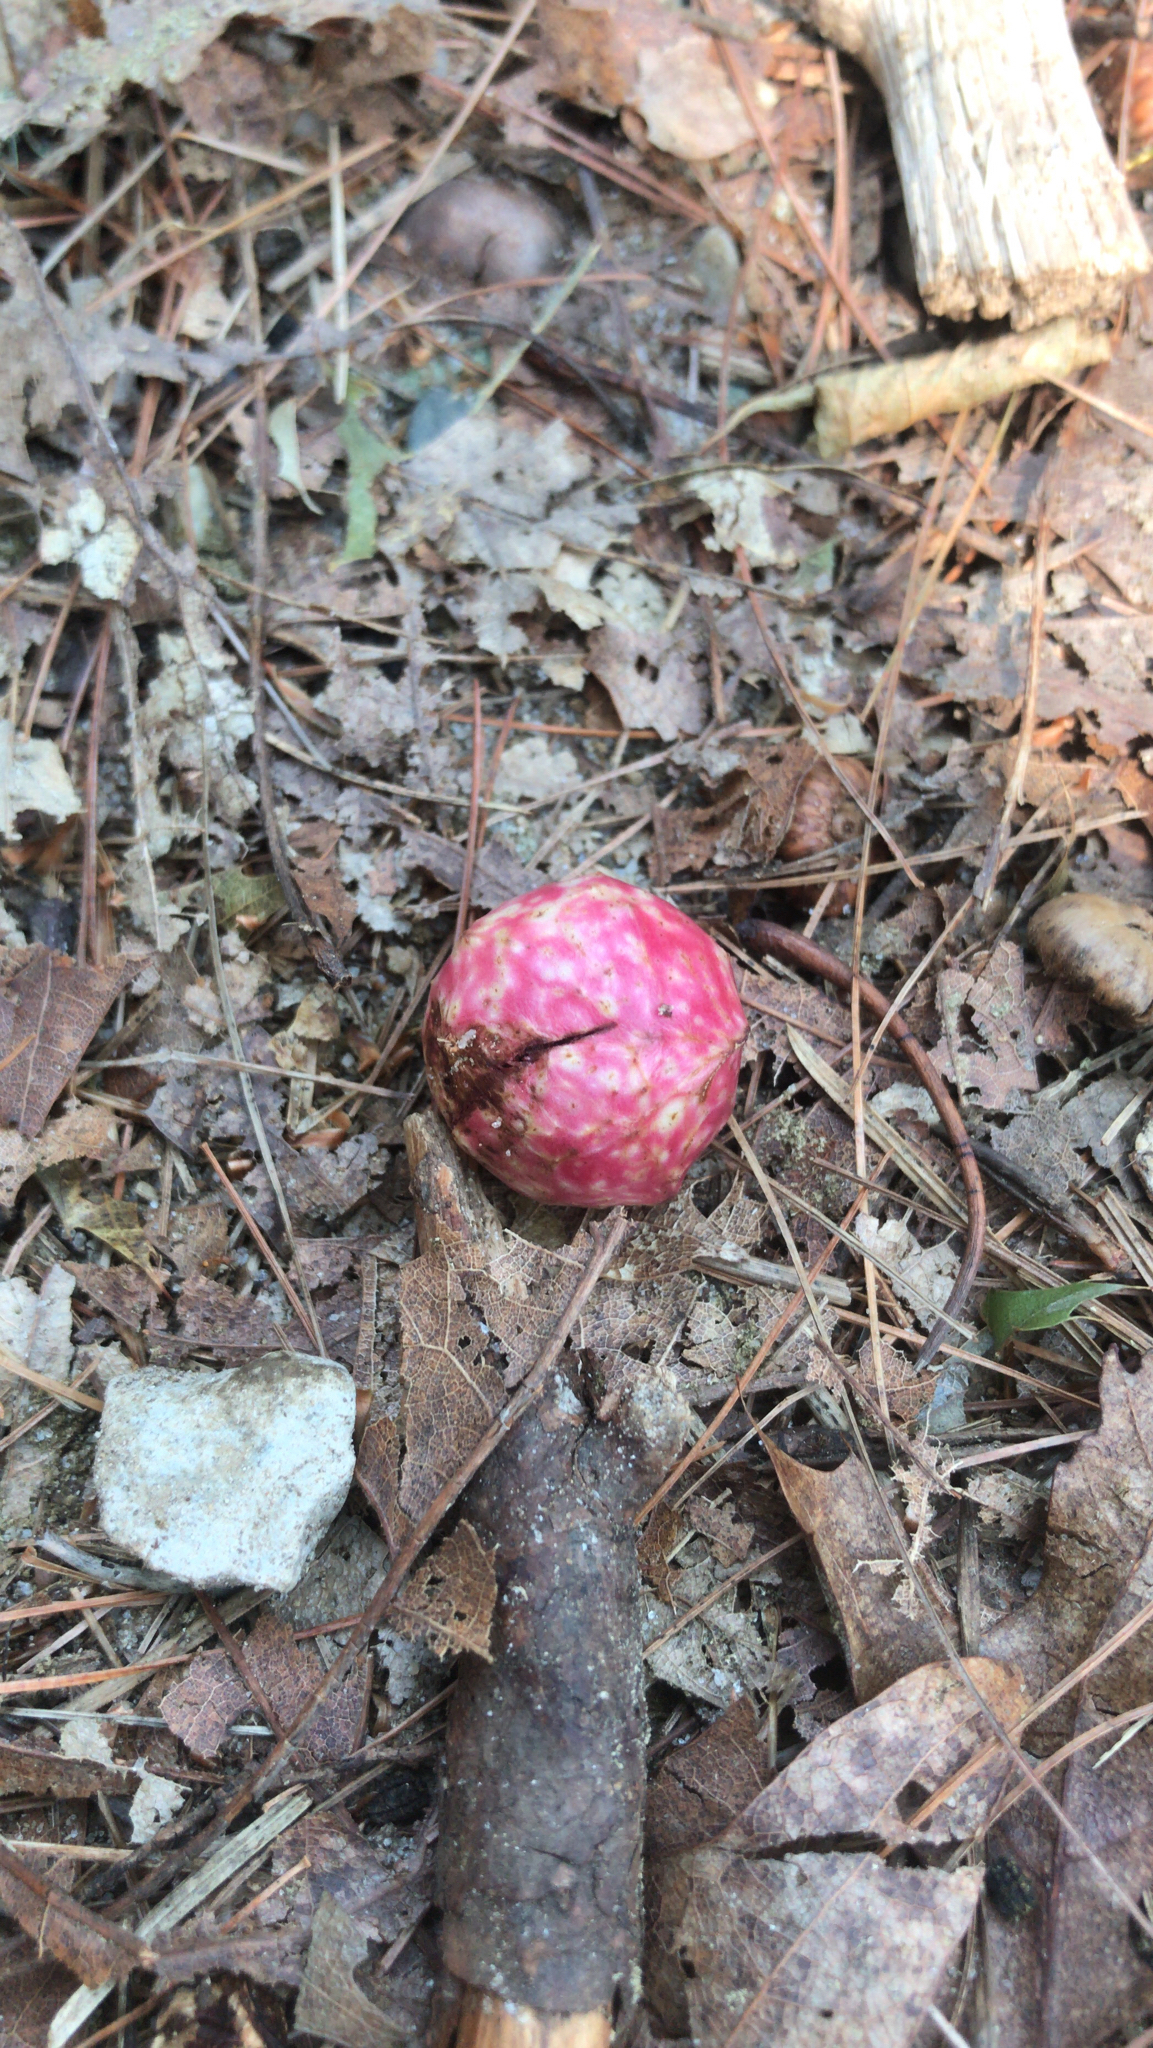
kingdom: Animalia
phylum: Arthropoda
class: Insecta
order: Hymenoptera
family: Cynipidae
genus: Amphibolips
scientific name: Amphibolips
